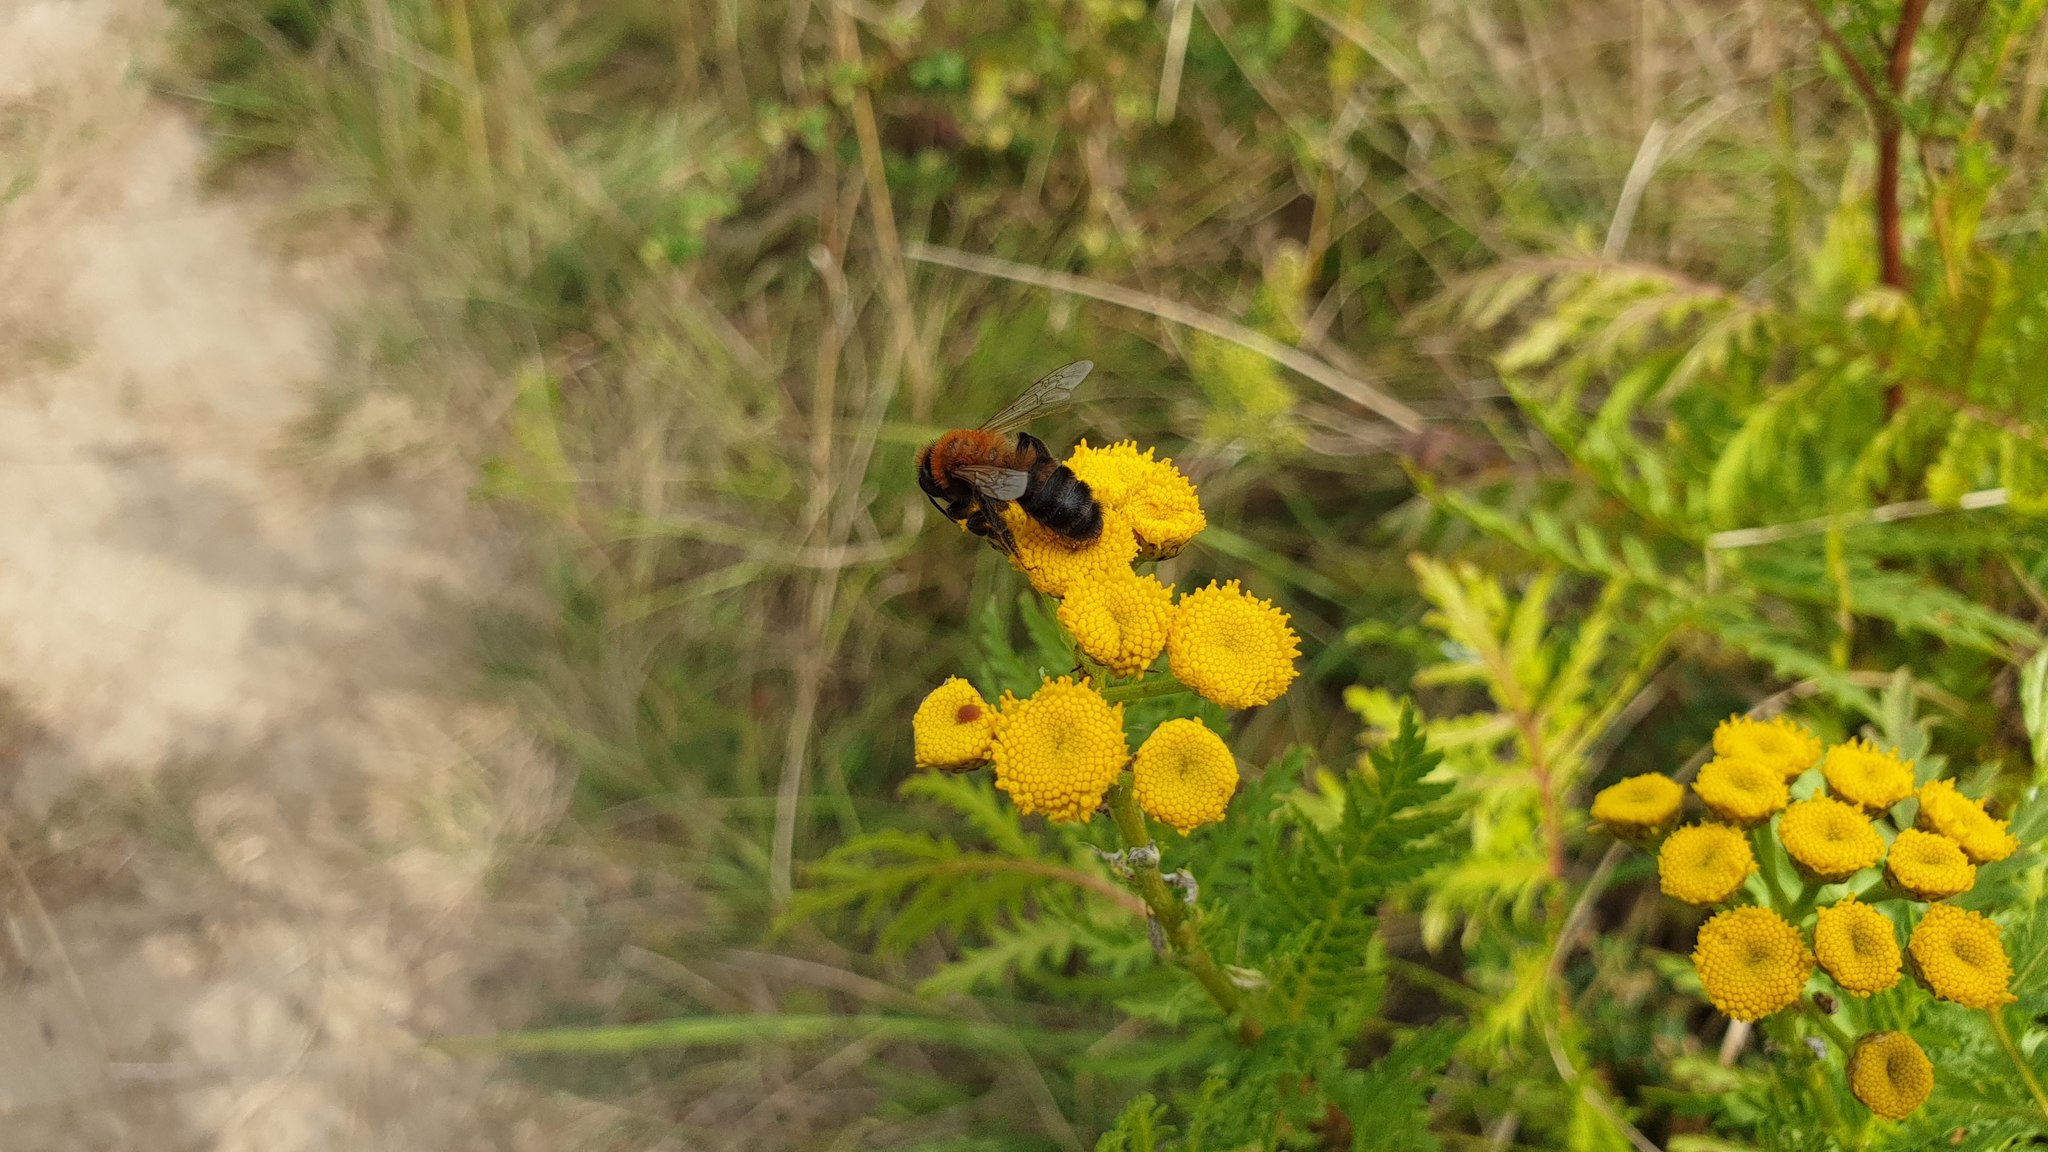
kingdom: Animalia
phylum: Arthropoda
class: Insecta
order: Hymenoptera
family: Andrenidae
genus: Andrena
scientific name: Andrena nigriceps
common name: Black-headed mining bee
